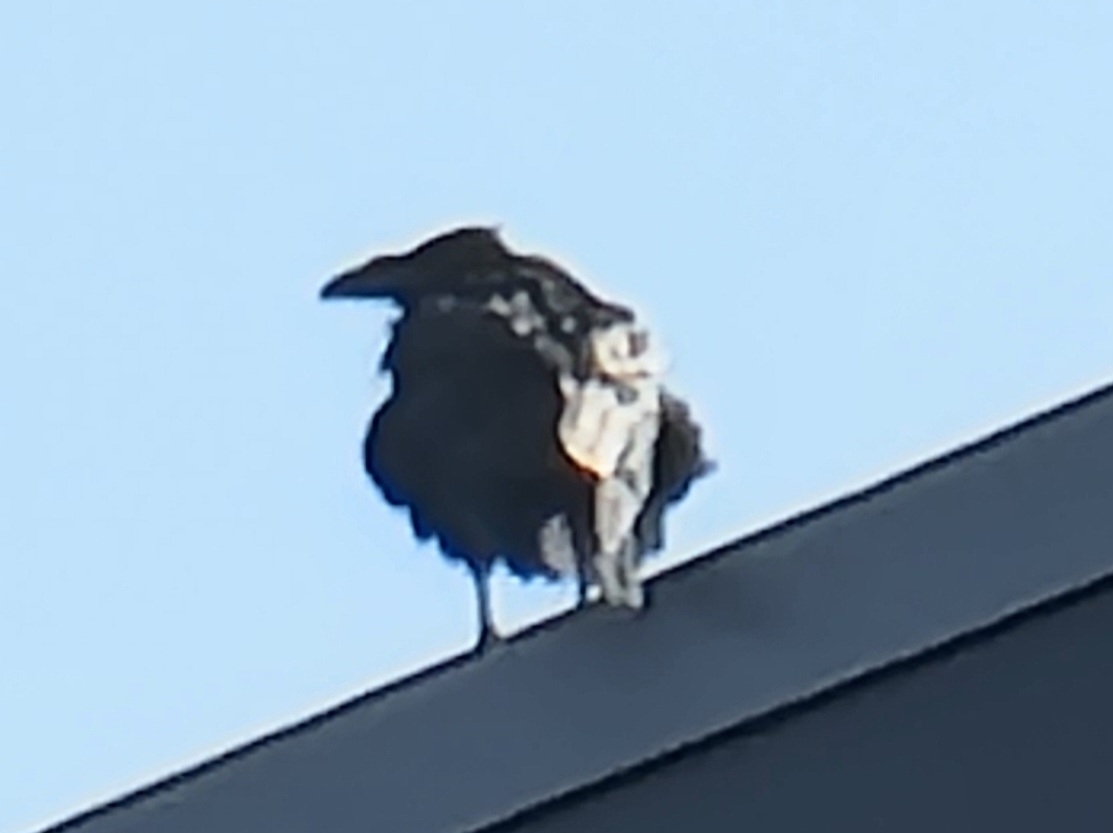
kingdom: Animalia
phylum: Chordata
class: Aves
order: Passeriformes
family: Corvidae
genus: Corvus
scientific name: Corvus corax
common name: Common raven
